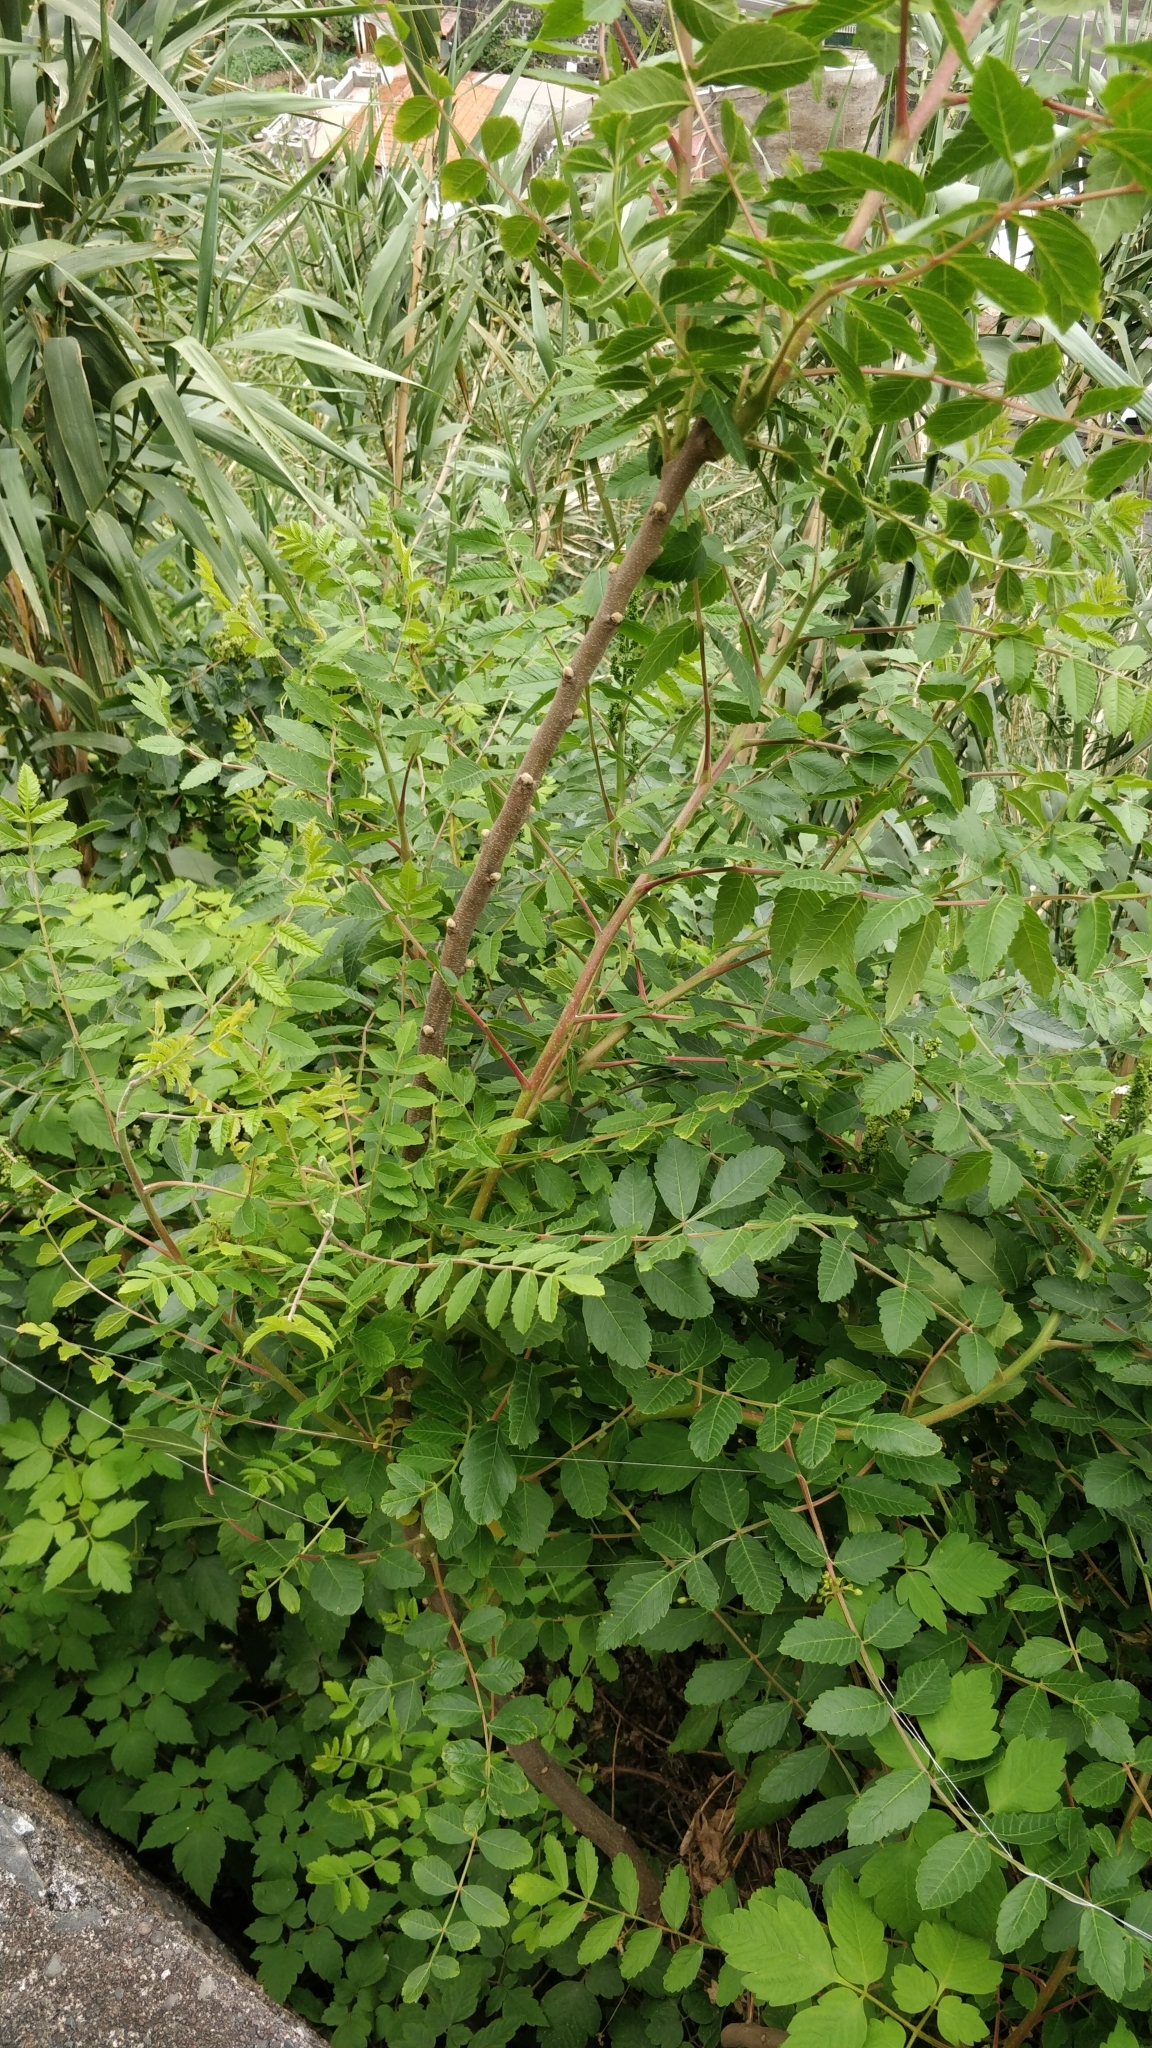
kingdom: Plantae
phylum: Tracheophyta
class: Magnoliopsida
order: Sapindales
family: Anacardiaceae
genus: Rhus
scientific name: Rhus coriaria
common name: Tanner's sumach
